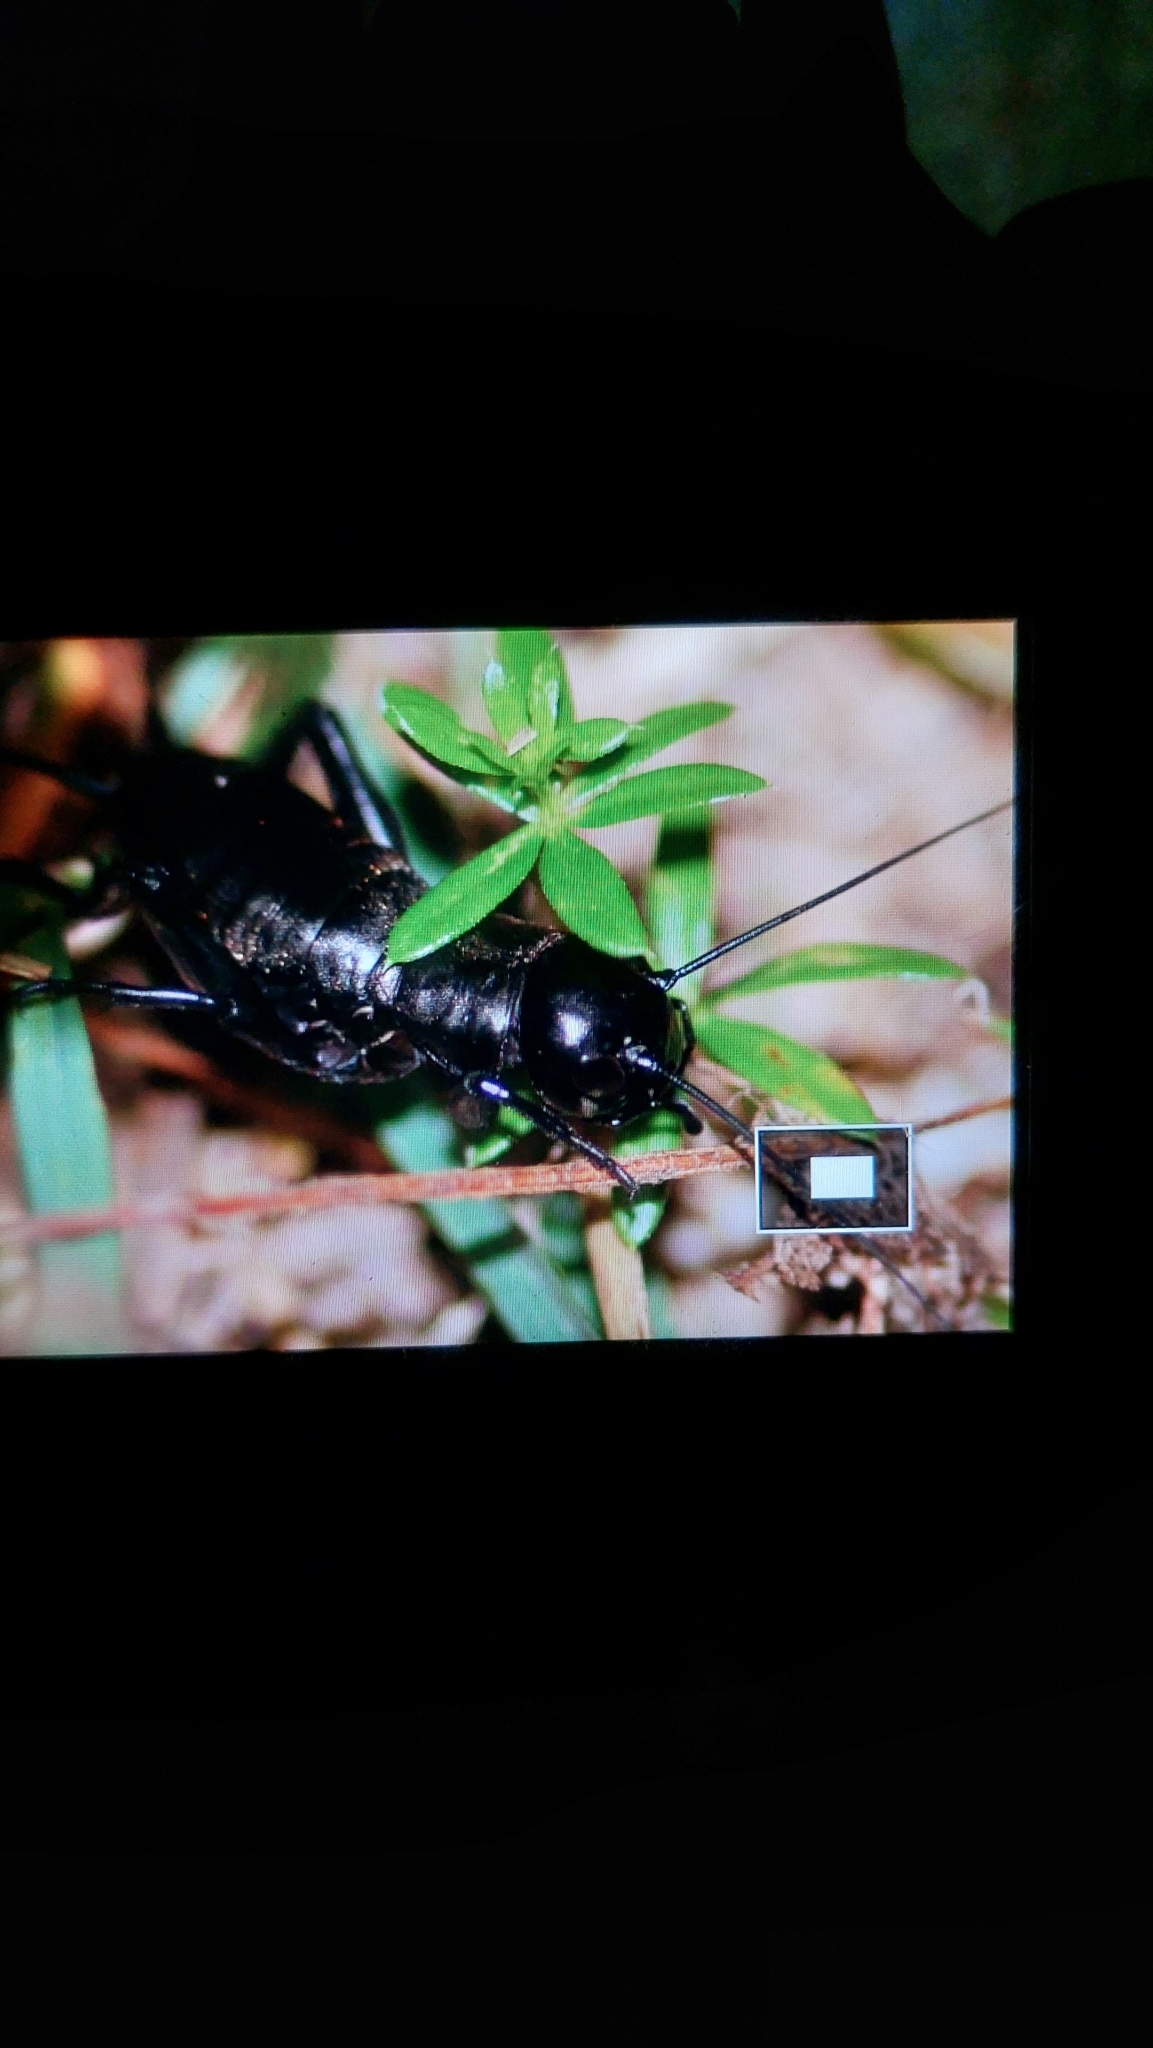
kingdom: Animalia
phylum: Arthropoda
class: Insecta
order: Orthoptera
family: Gryllidae
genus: Gryllus
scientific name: Gryllus campestris
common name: Field cricket
